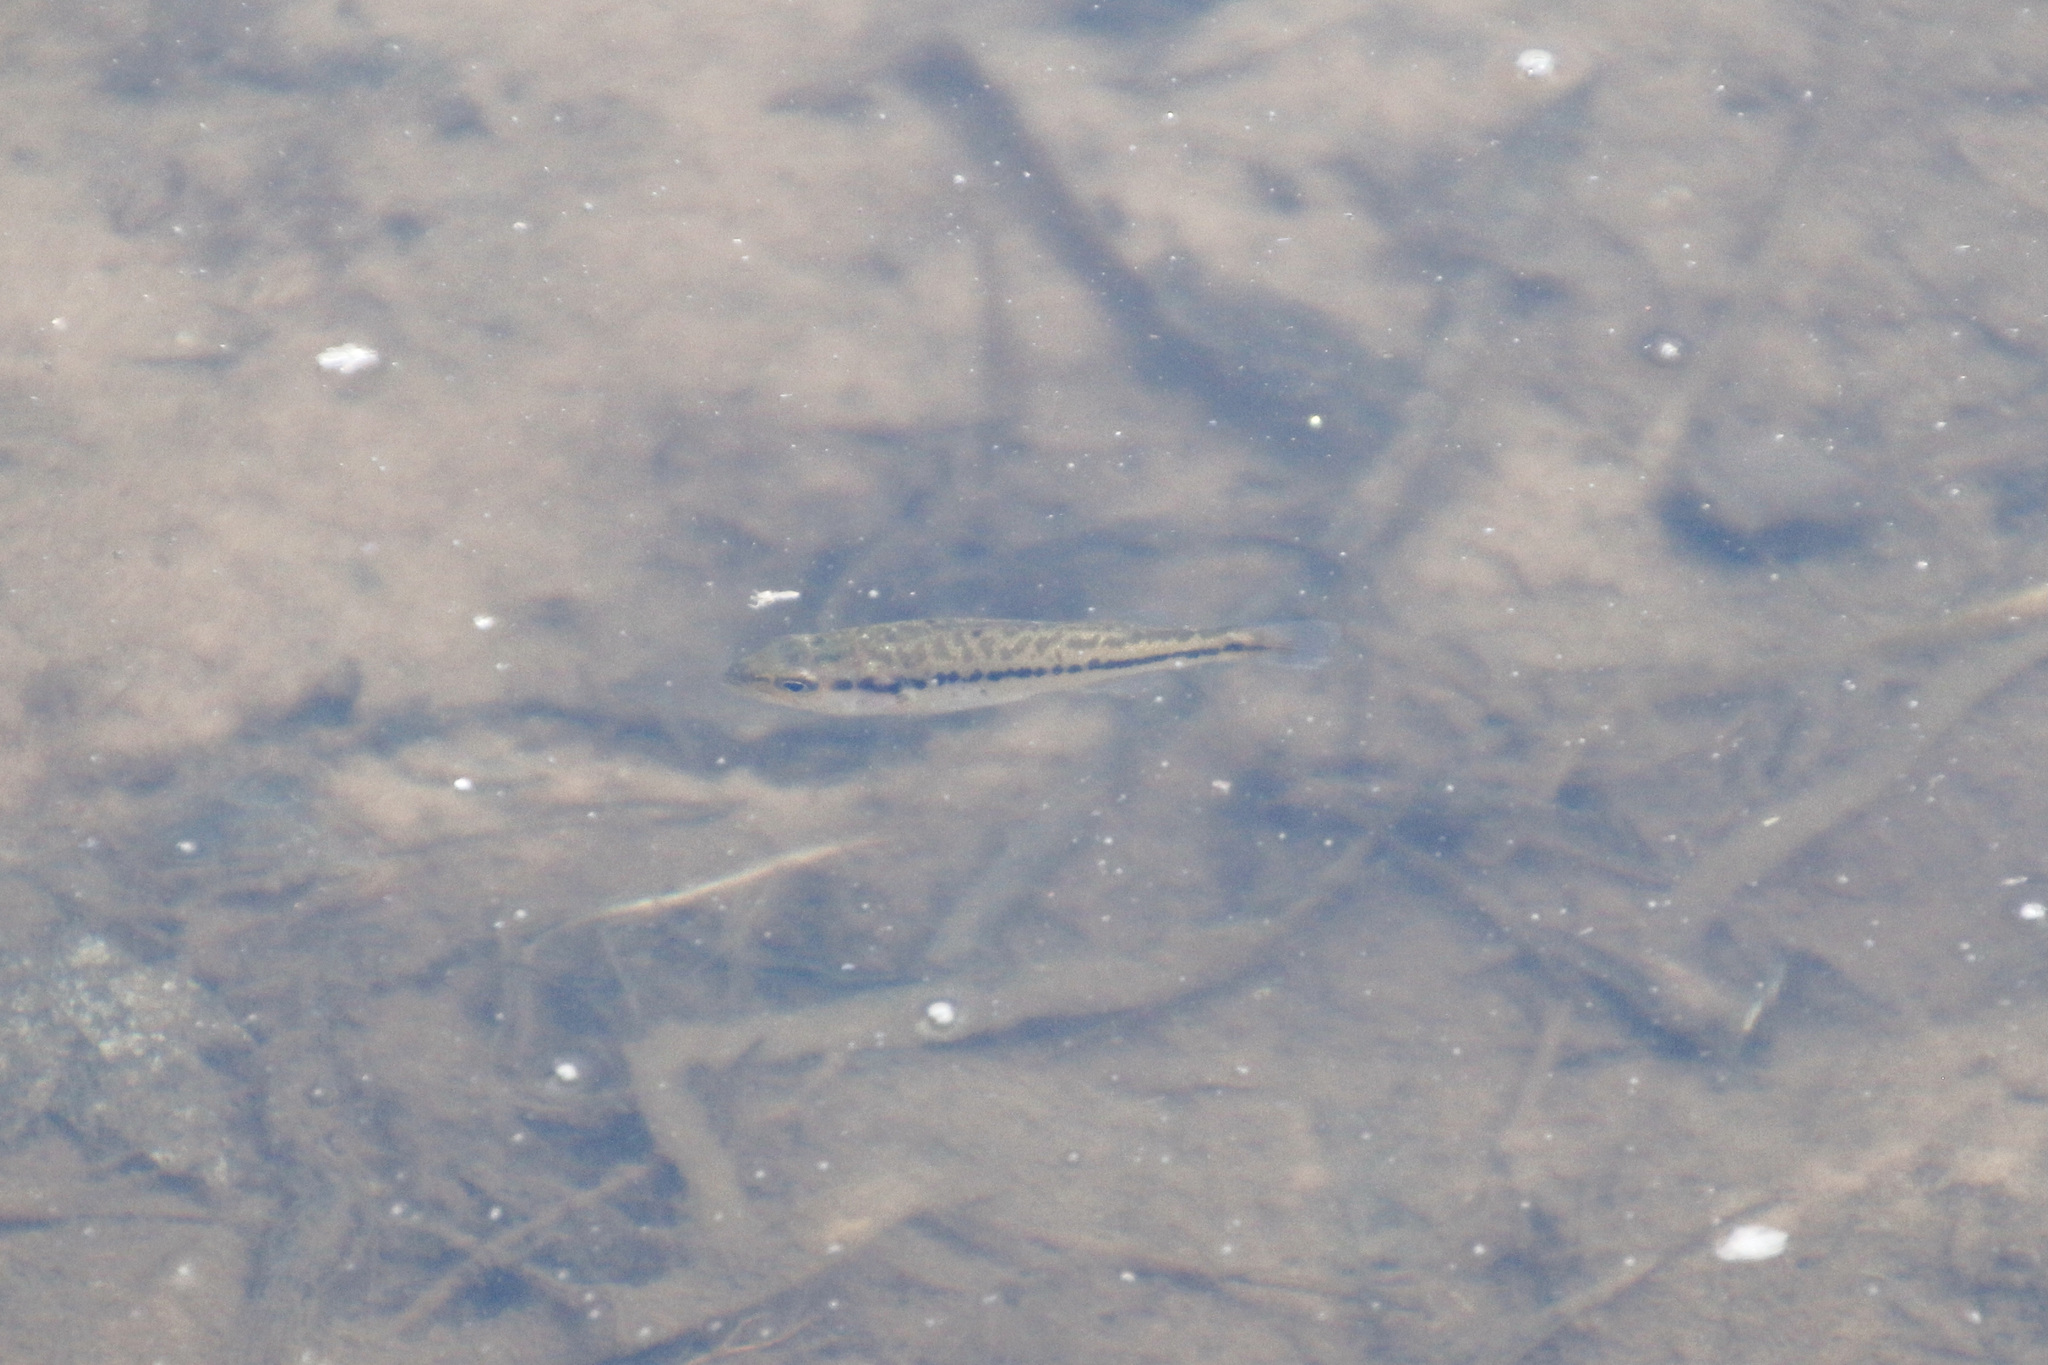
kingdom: Animalia
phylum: Chordata
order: Perciformes
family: Centrarchidae
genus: Micropterus
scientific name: Micropterus
